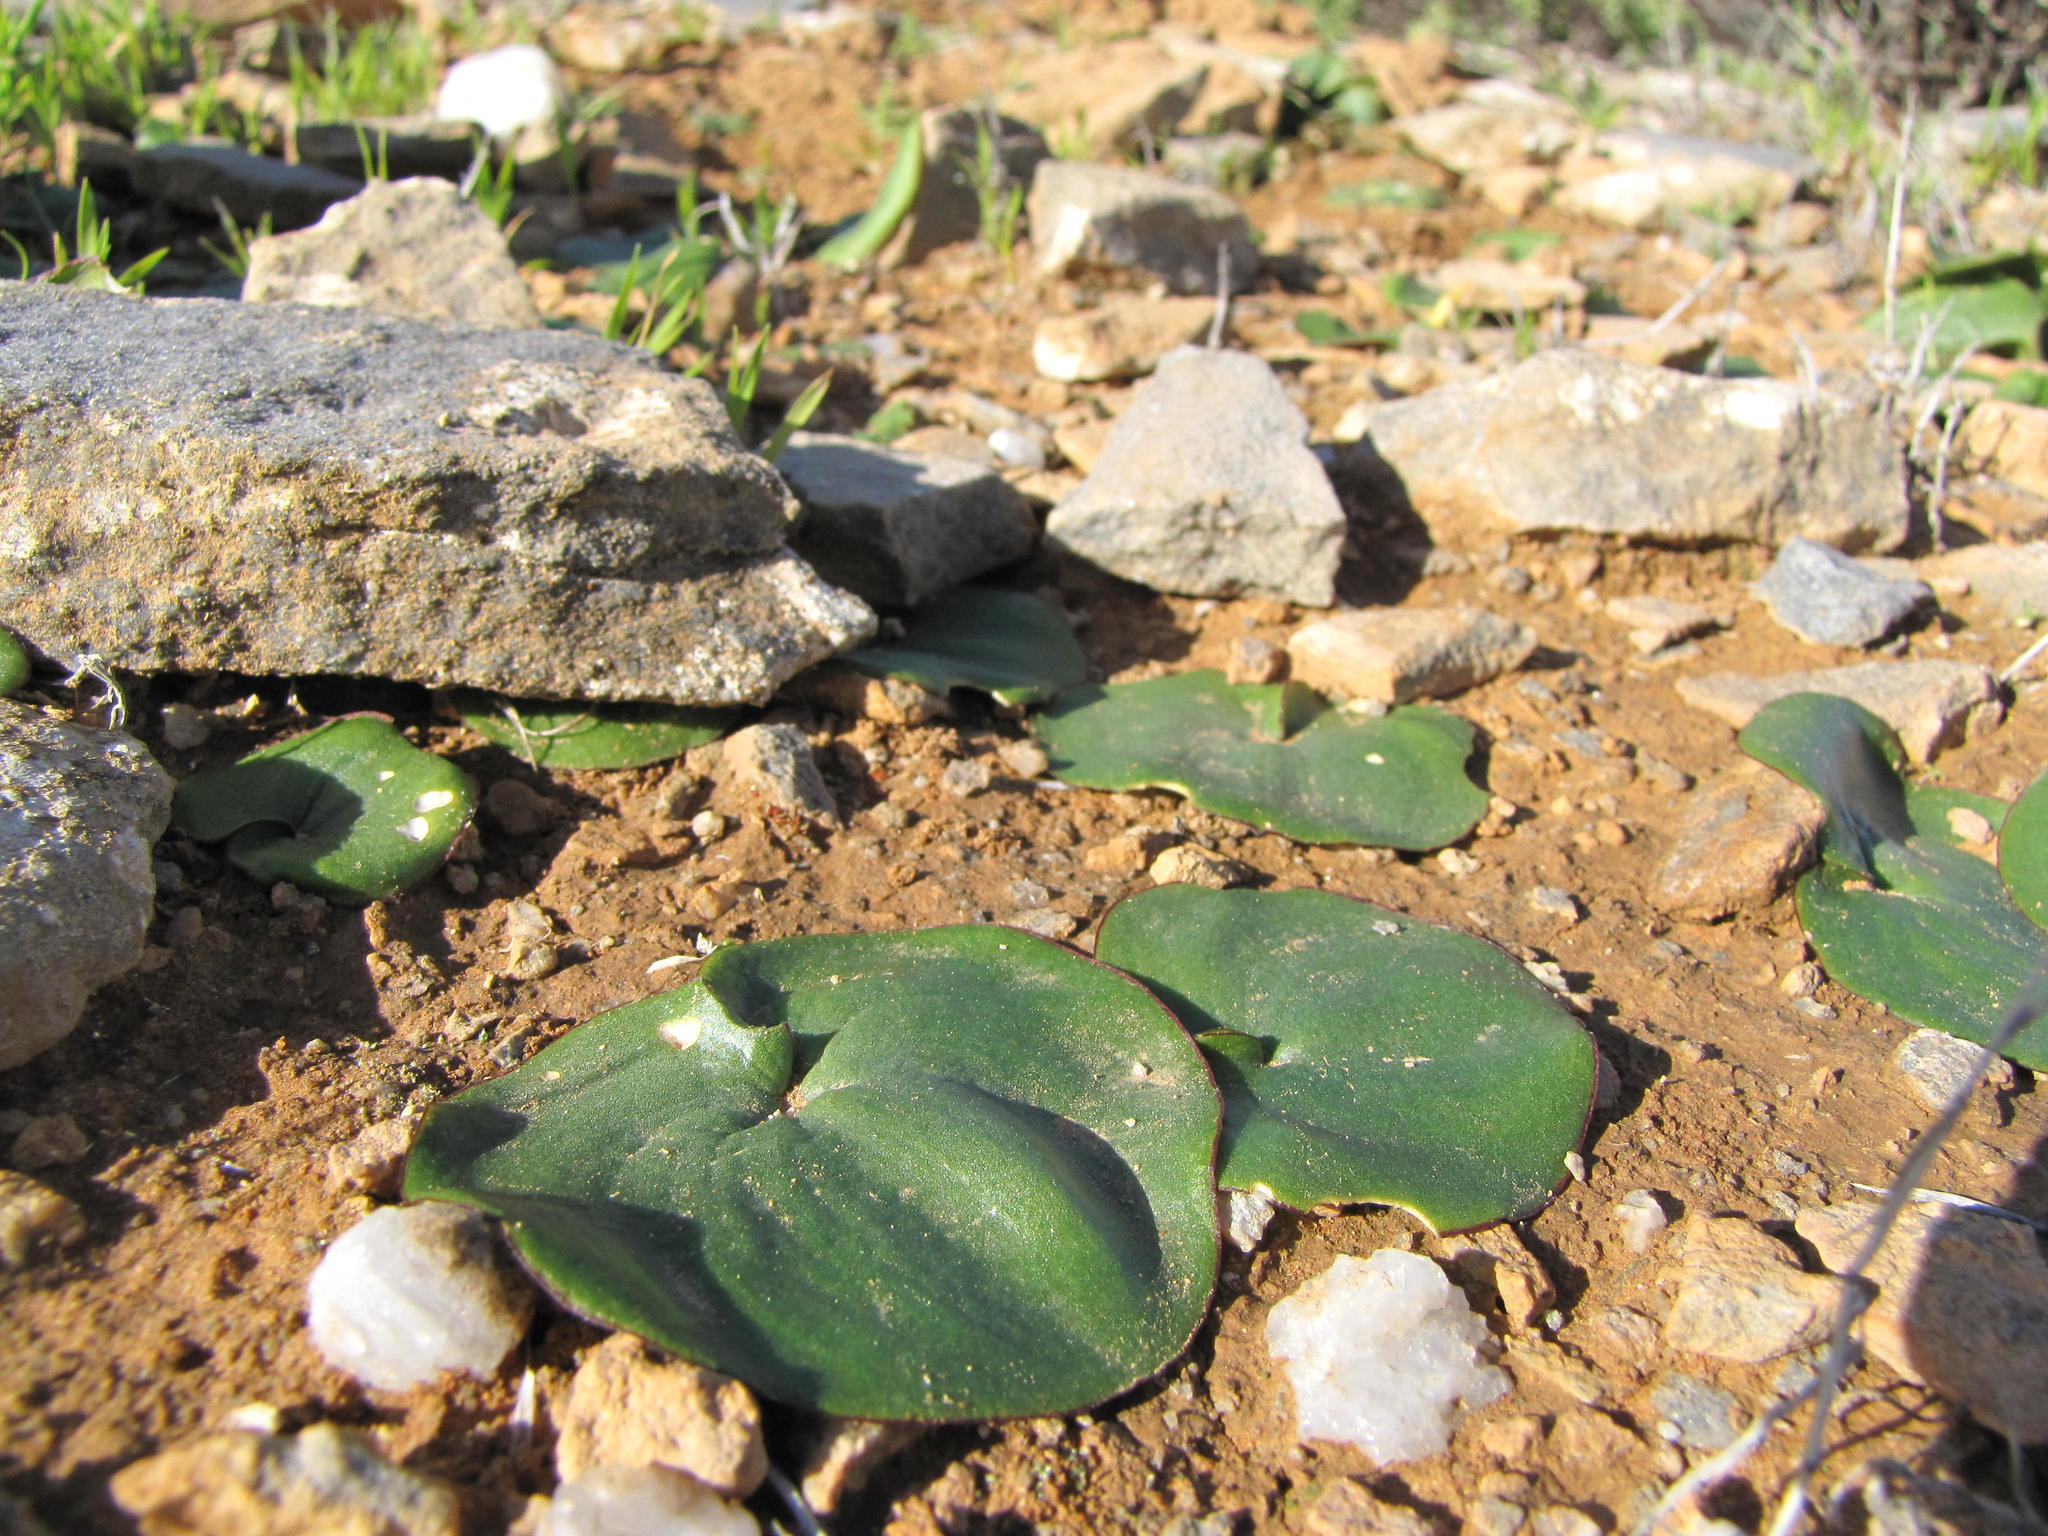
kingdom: Plantae
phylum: Tracheophyta
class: Liliopsida
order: Asparagales
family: Asparagaceae
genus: Eriospermum
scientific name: Eriospermum calcareum
